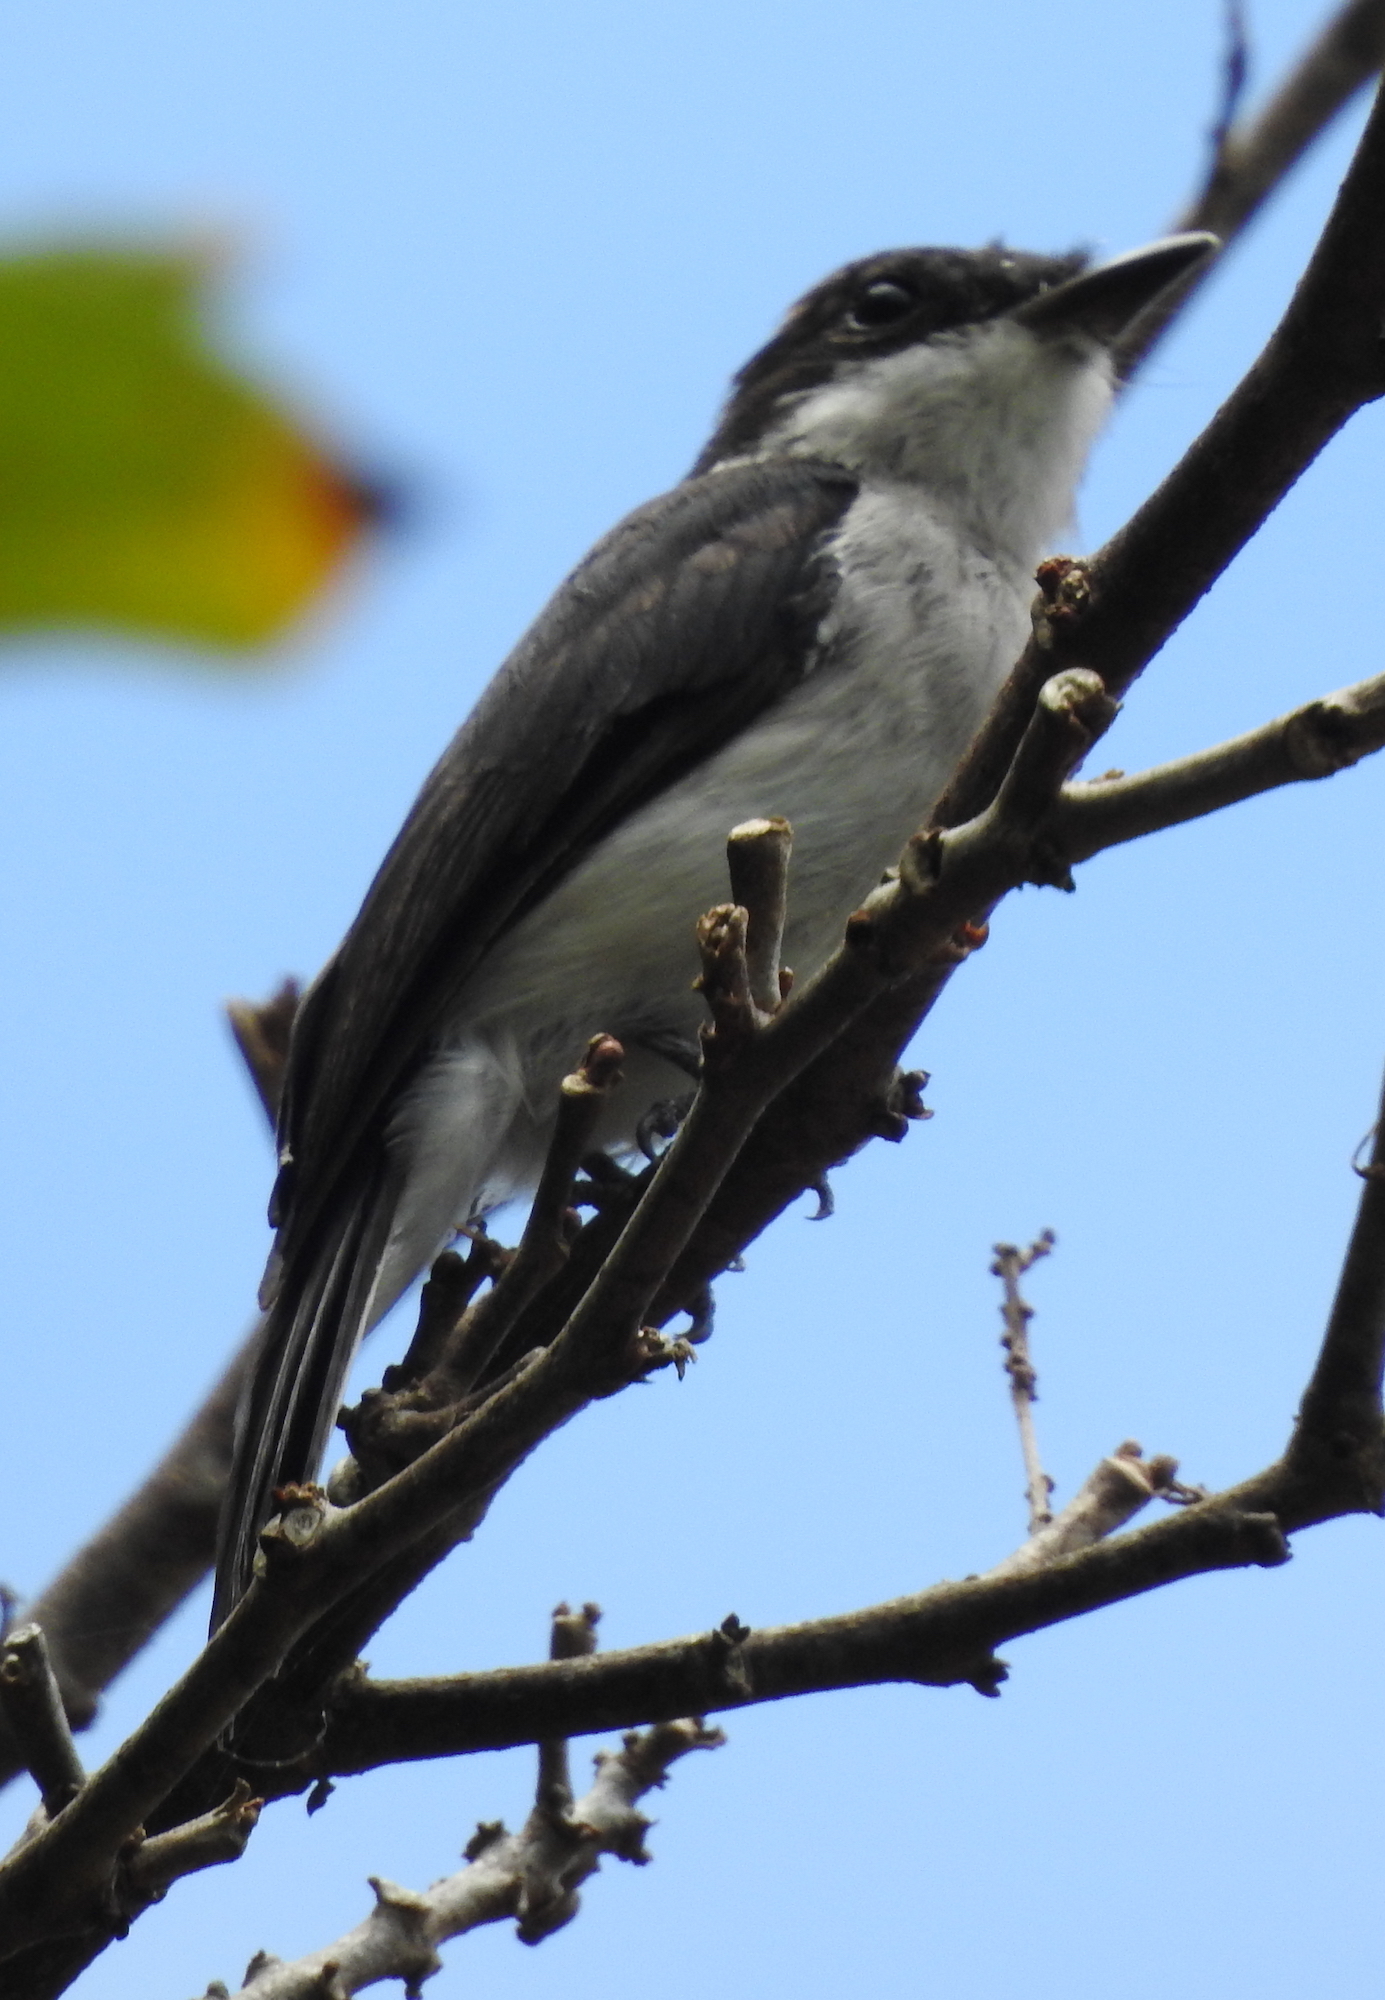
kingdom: Animalia
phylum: Chordata
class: Aves
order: Passeriformes
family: Tephrodornithidae
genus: Hemipus
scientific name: Hemipus hirundinaceus
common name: Black-winged flycatcher-shrike
